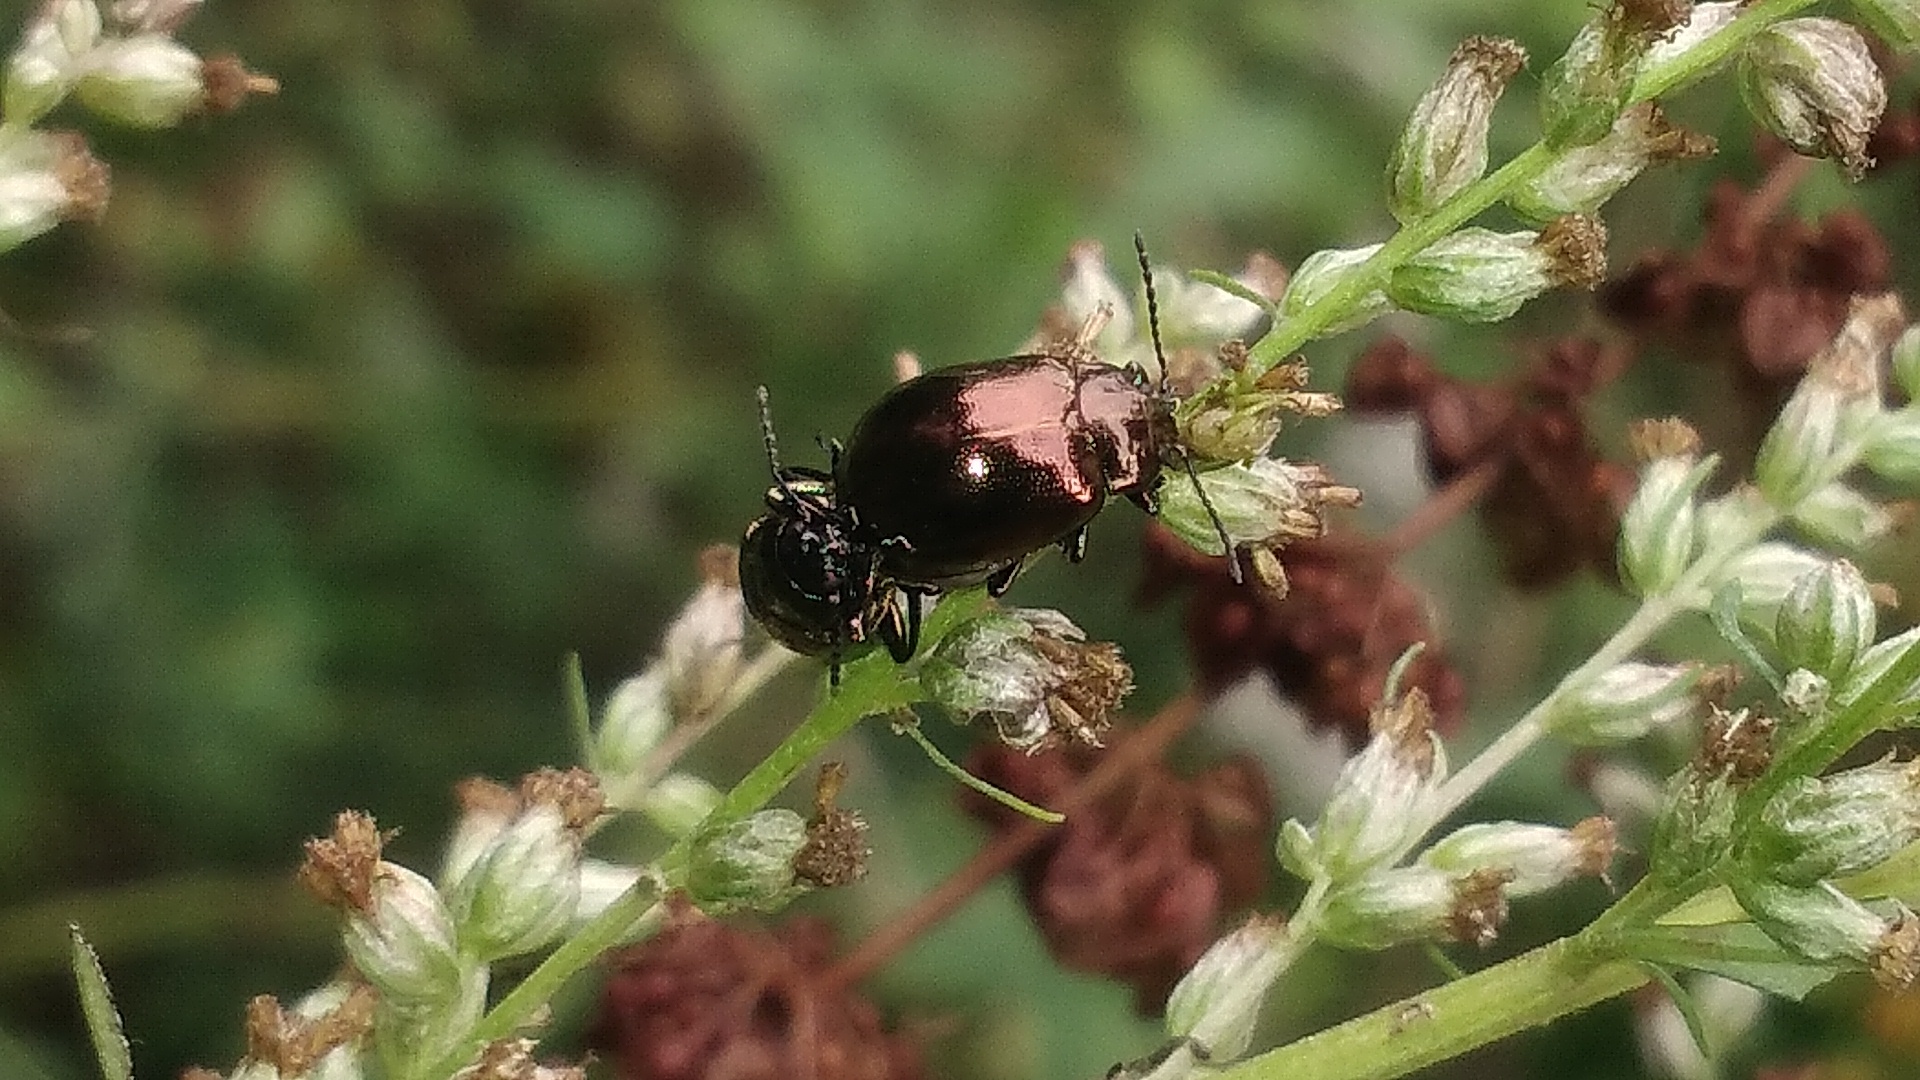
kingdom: Animalia
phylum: Arthropoda
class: Insecta
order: Coleoptera
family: Chrysomelidae
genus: Chrysolina
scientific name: Chrysolina aurichalcea
